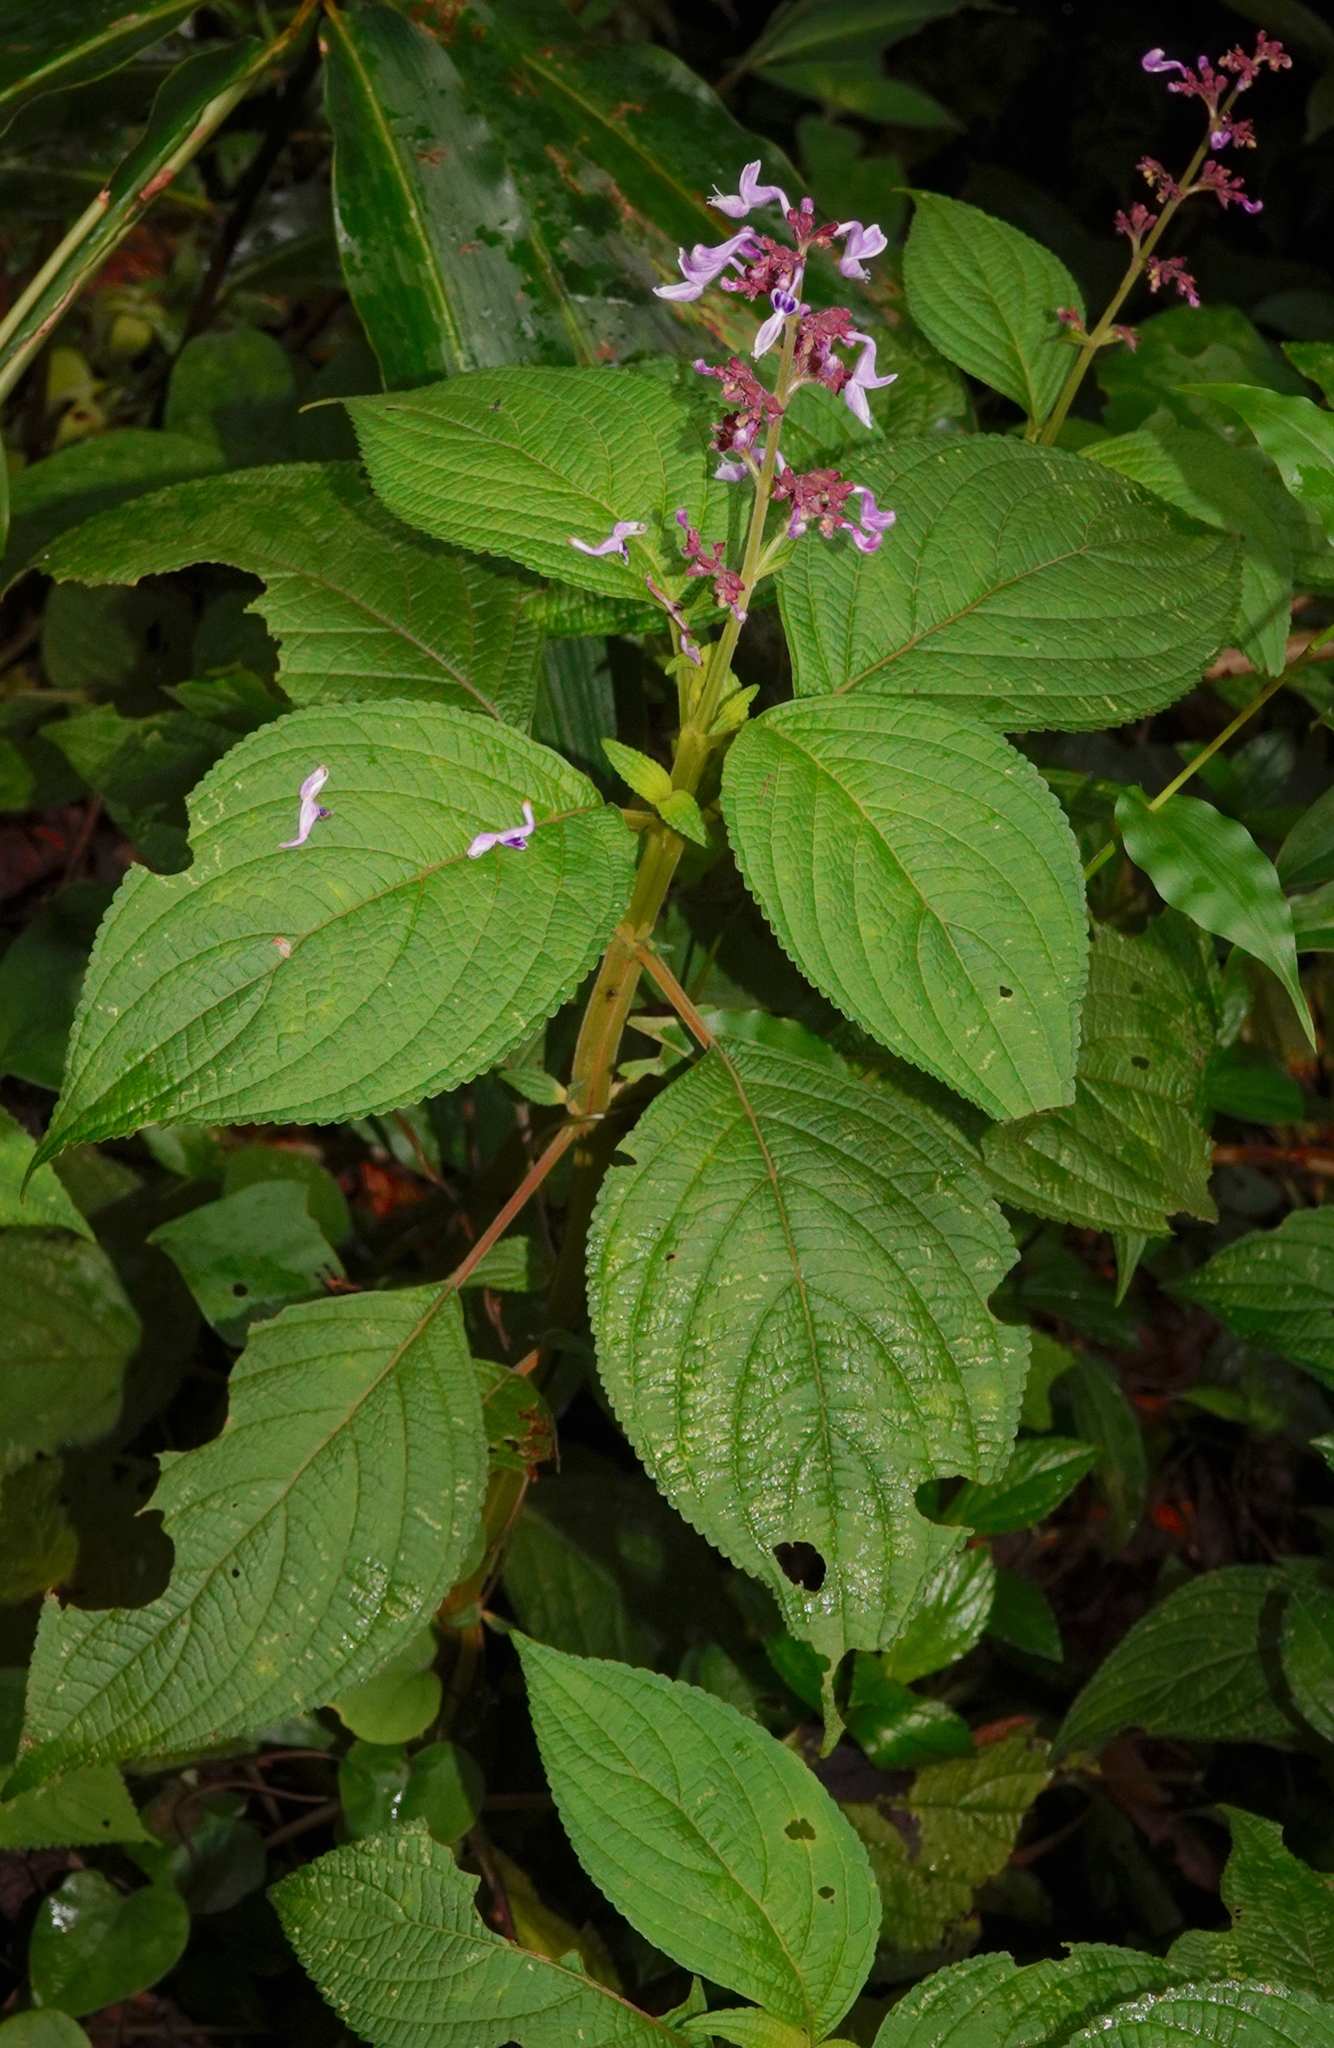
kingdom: Plantae
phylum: Tracheophyta
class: Magnoliopsida
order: Lamiales
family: Lamiaceae
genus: Coleus
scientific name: Coleus kanneliyensis
